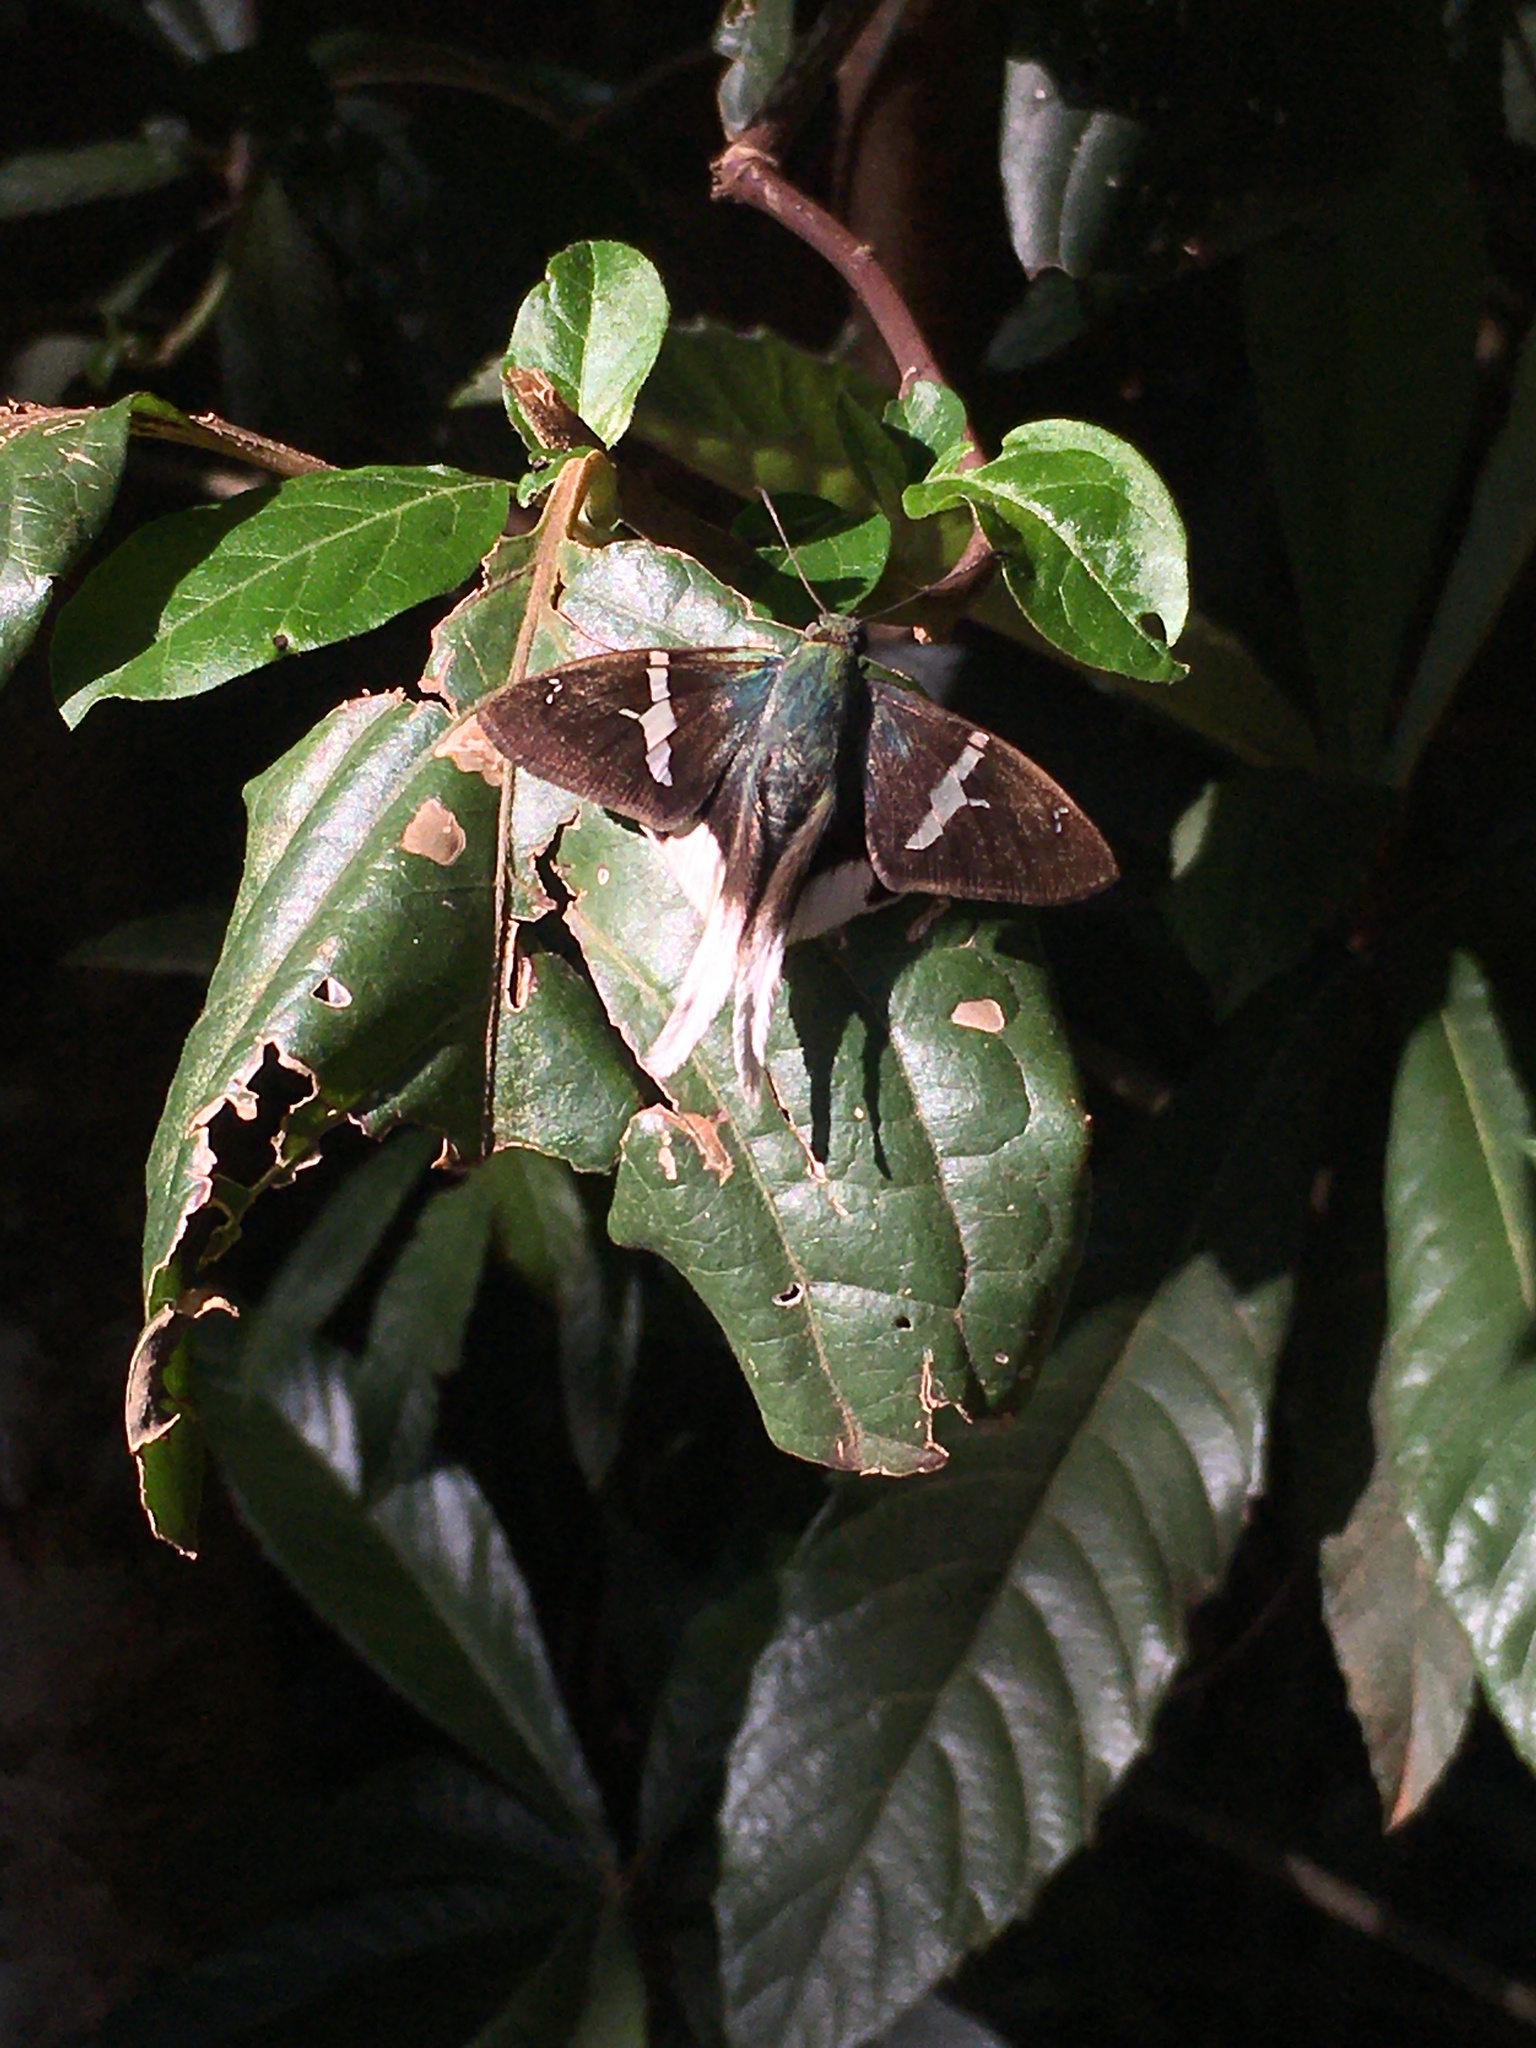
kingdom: Animalia
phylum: Arthropoda
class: Insecta
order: Lepidoptera
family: Hesperiidae
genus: Urbanus
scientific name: Urbanus chalco
